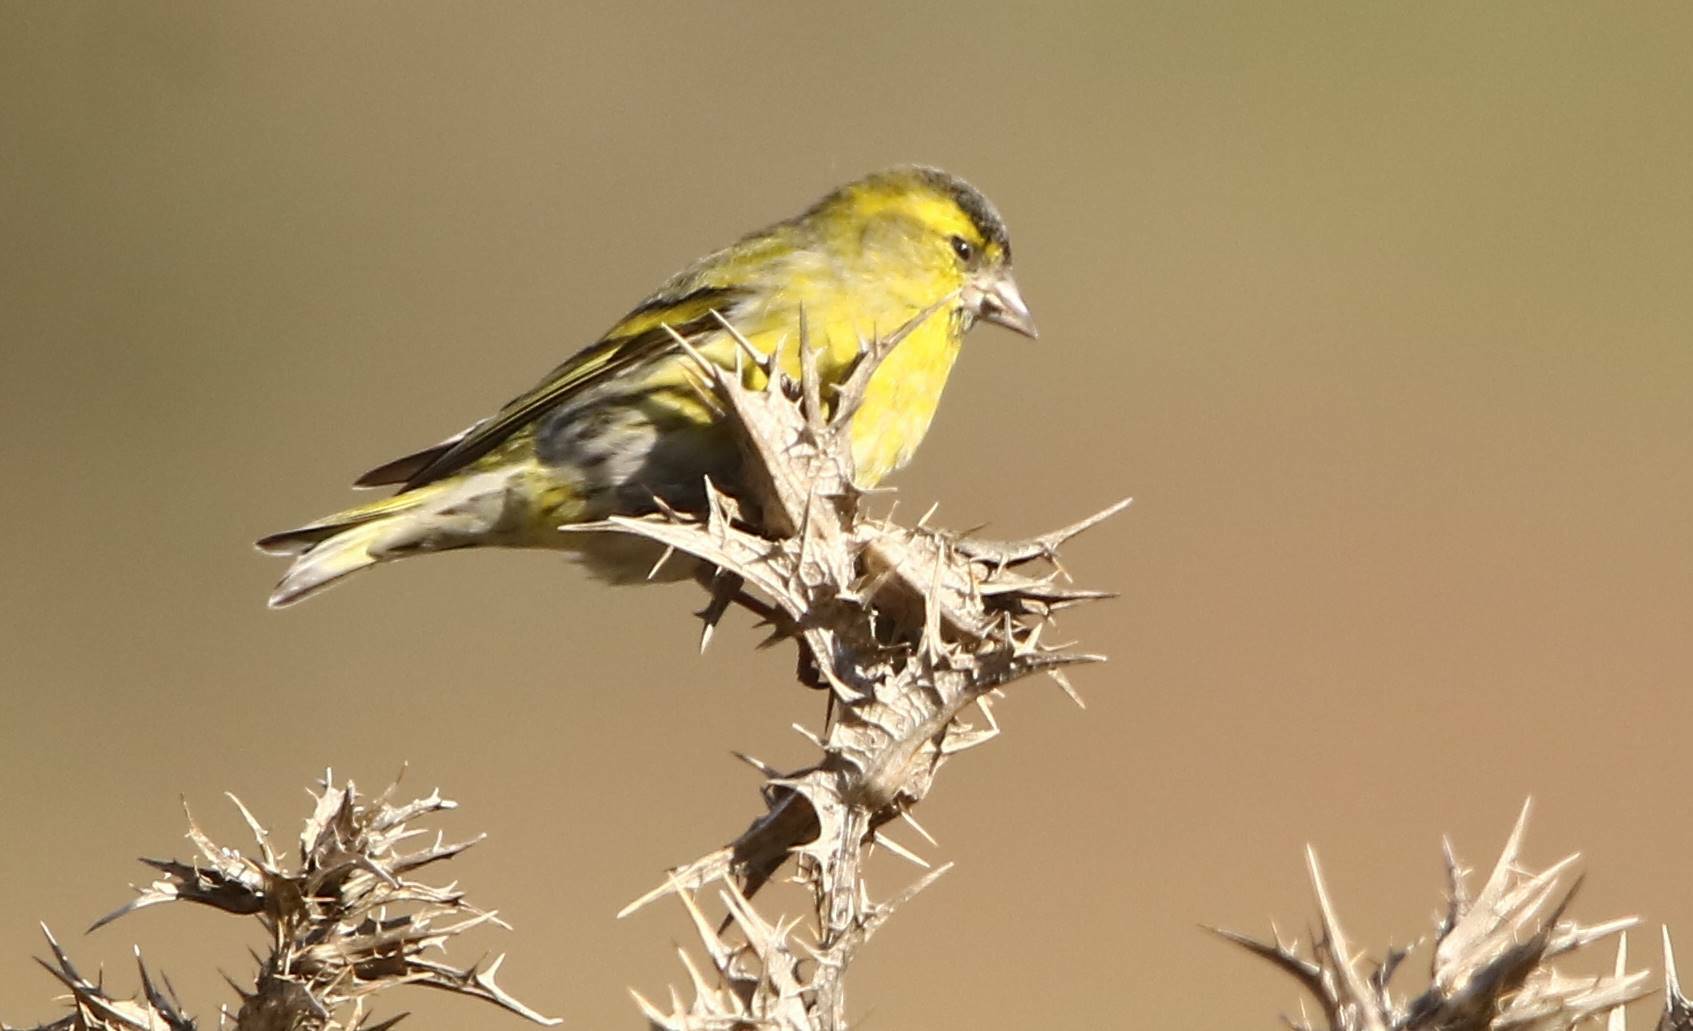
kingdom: Animalia
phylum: Chordata
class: Aves
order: Passeriformes
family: Fringillidae
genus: Spinus
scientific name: Spinus spinus
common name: Eurasian siskin
